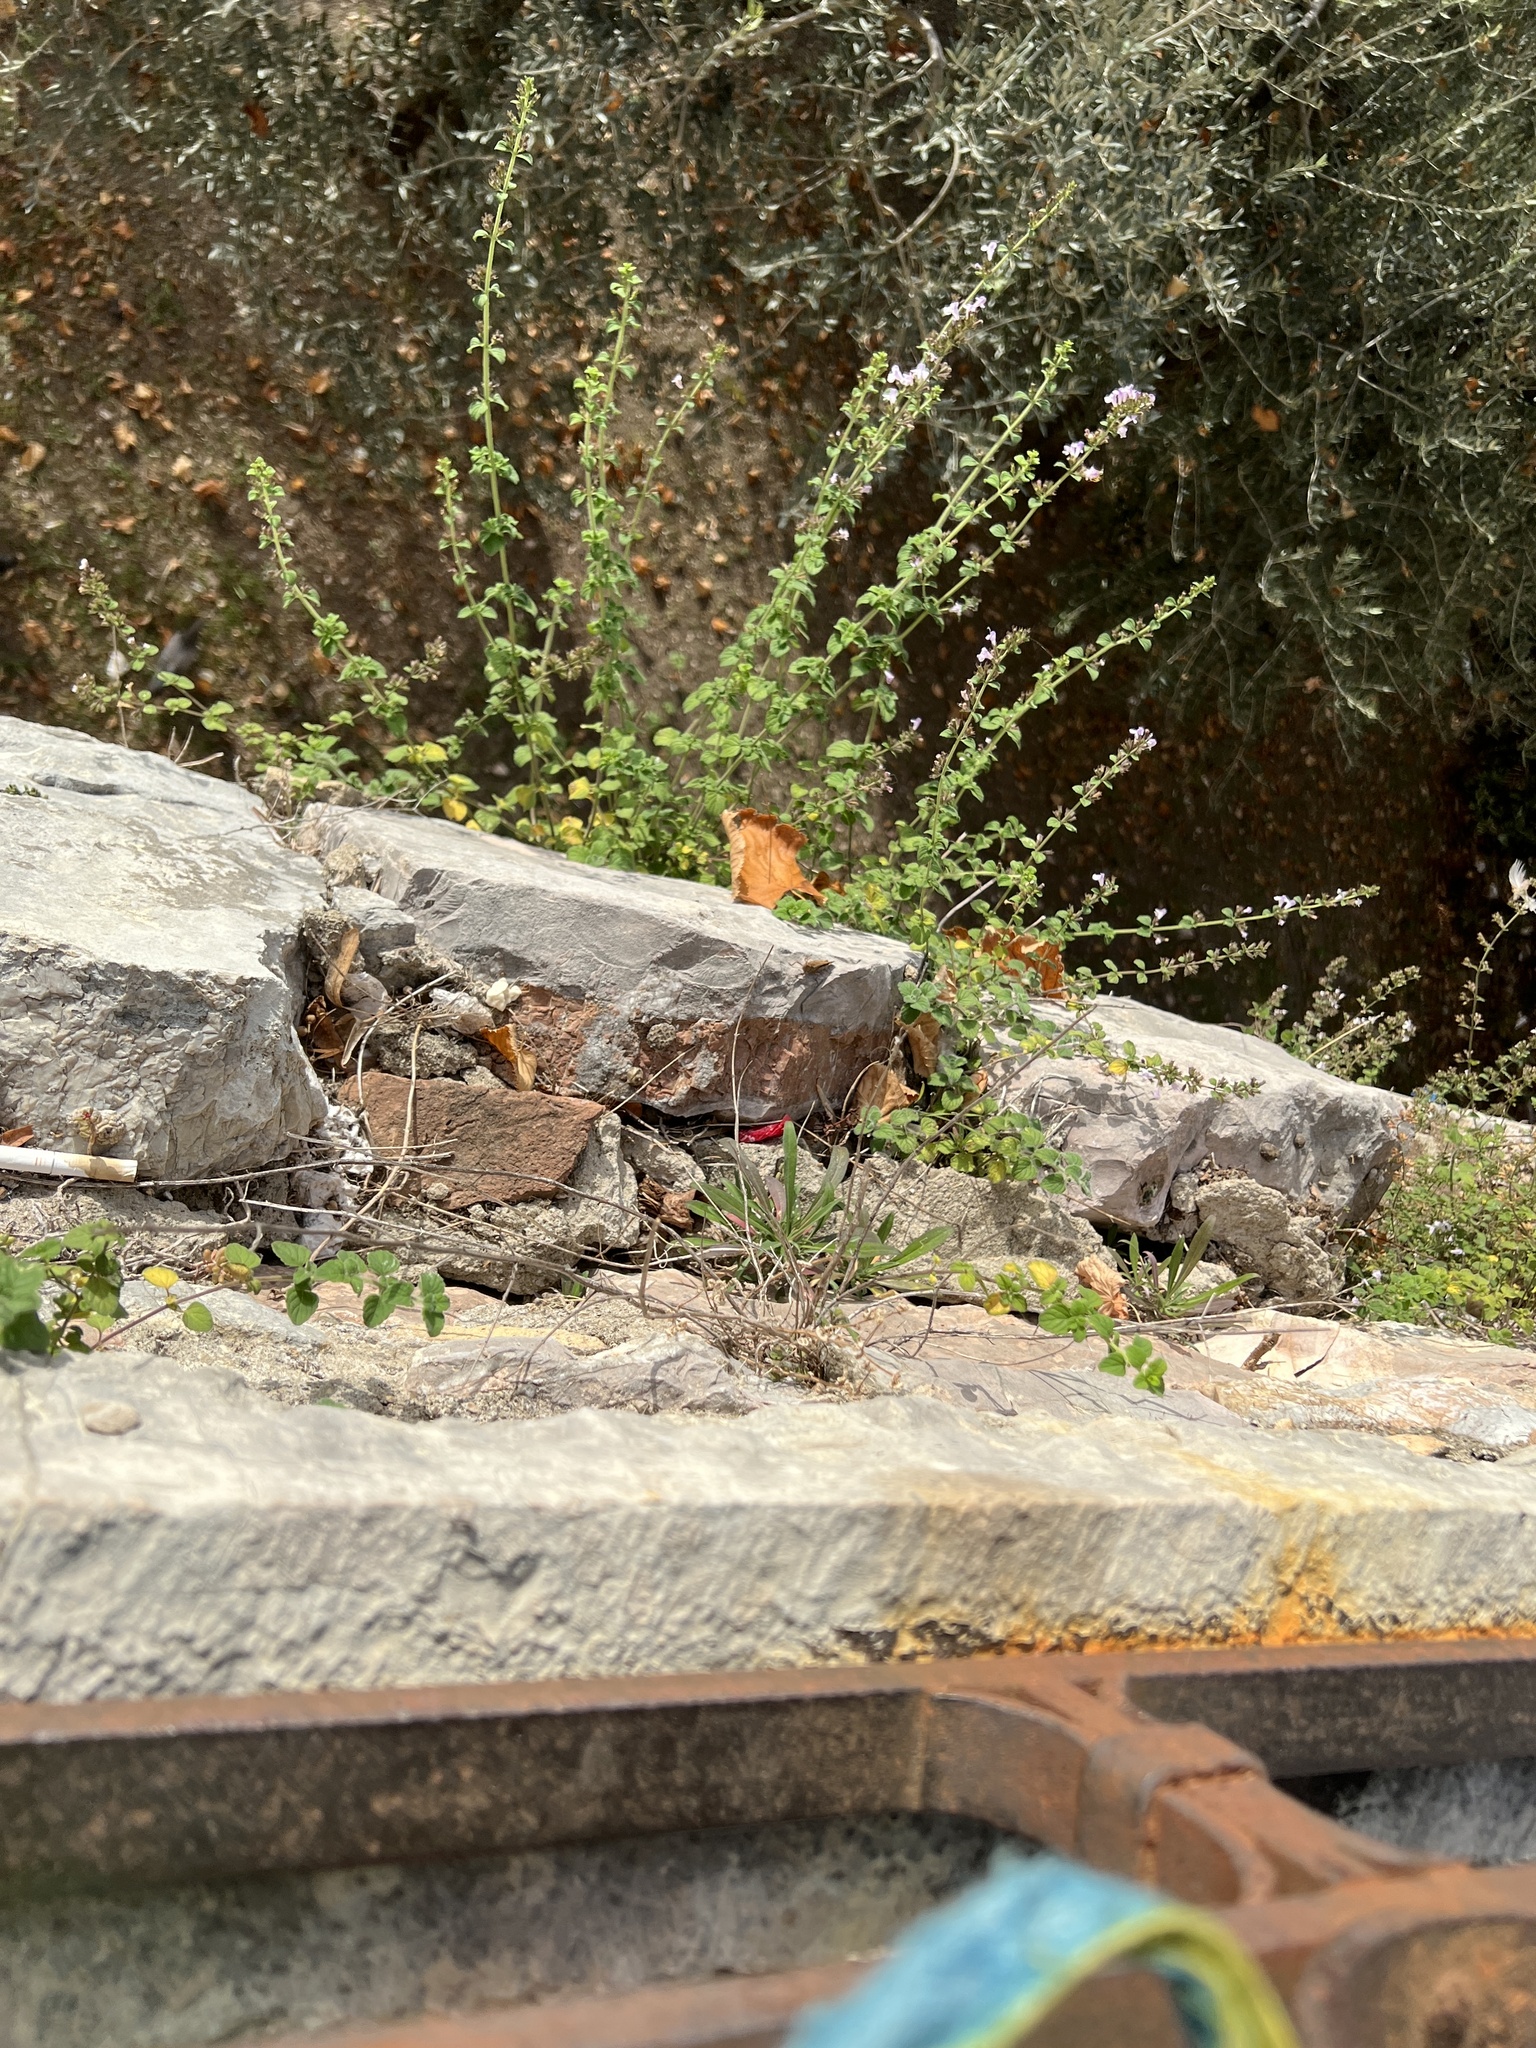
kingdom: Animalia
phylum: Arthropoda
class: Insecta
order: Orthoptera
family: Acrididae
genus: Aiolopus
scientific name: Aiolopus strepens
